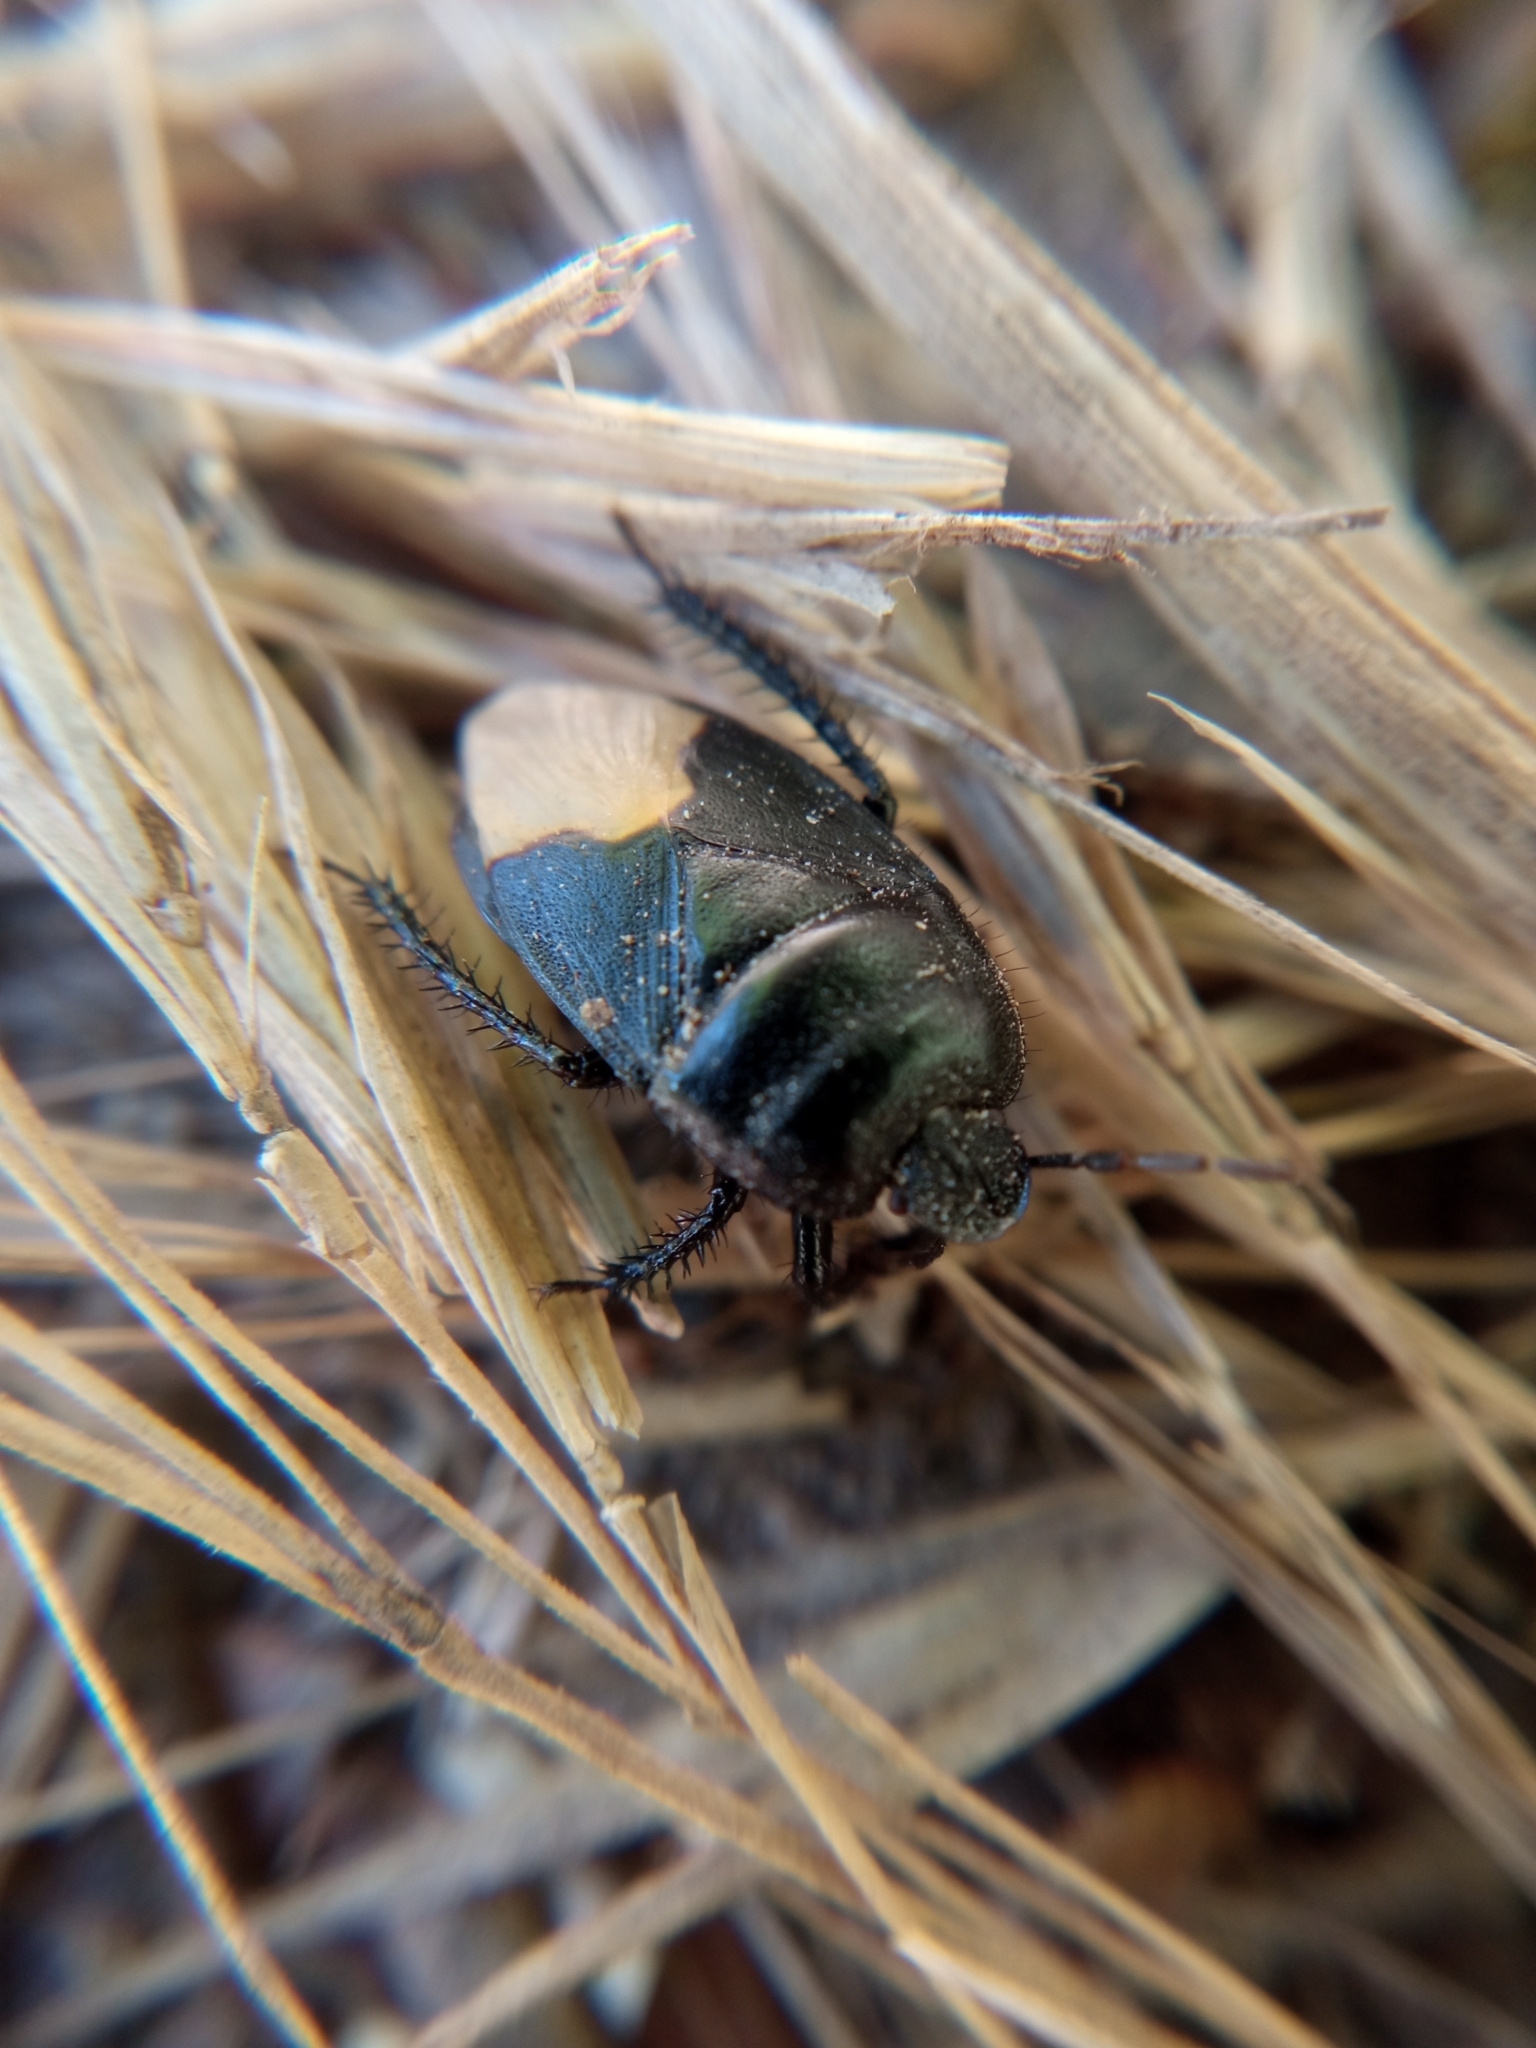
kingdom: Animalia
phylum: Arthropoda
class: Insecta
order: Hemiptera
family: Cydnidae
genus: Cydnus
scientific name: Cydnus aterrimus
